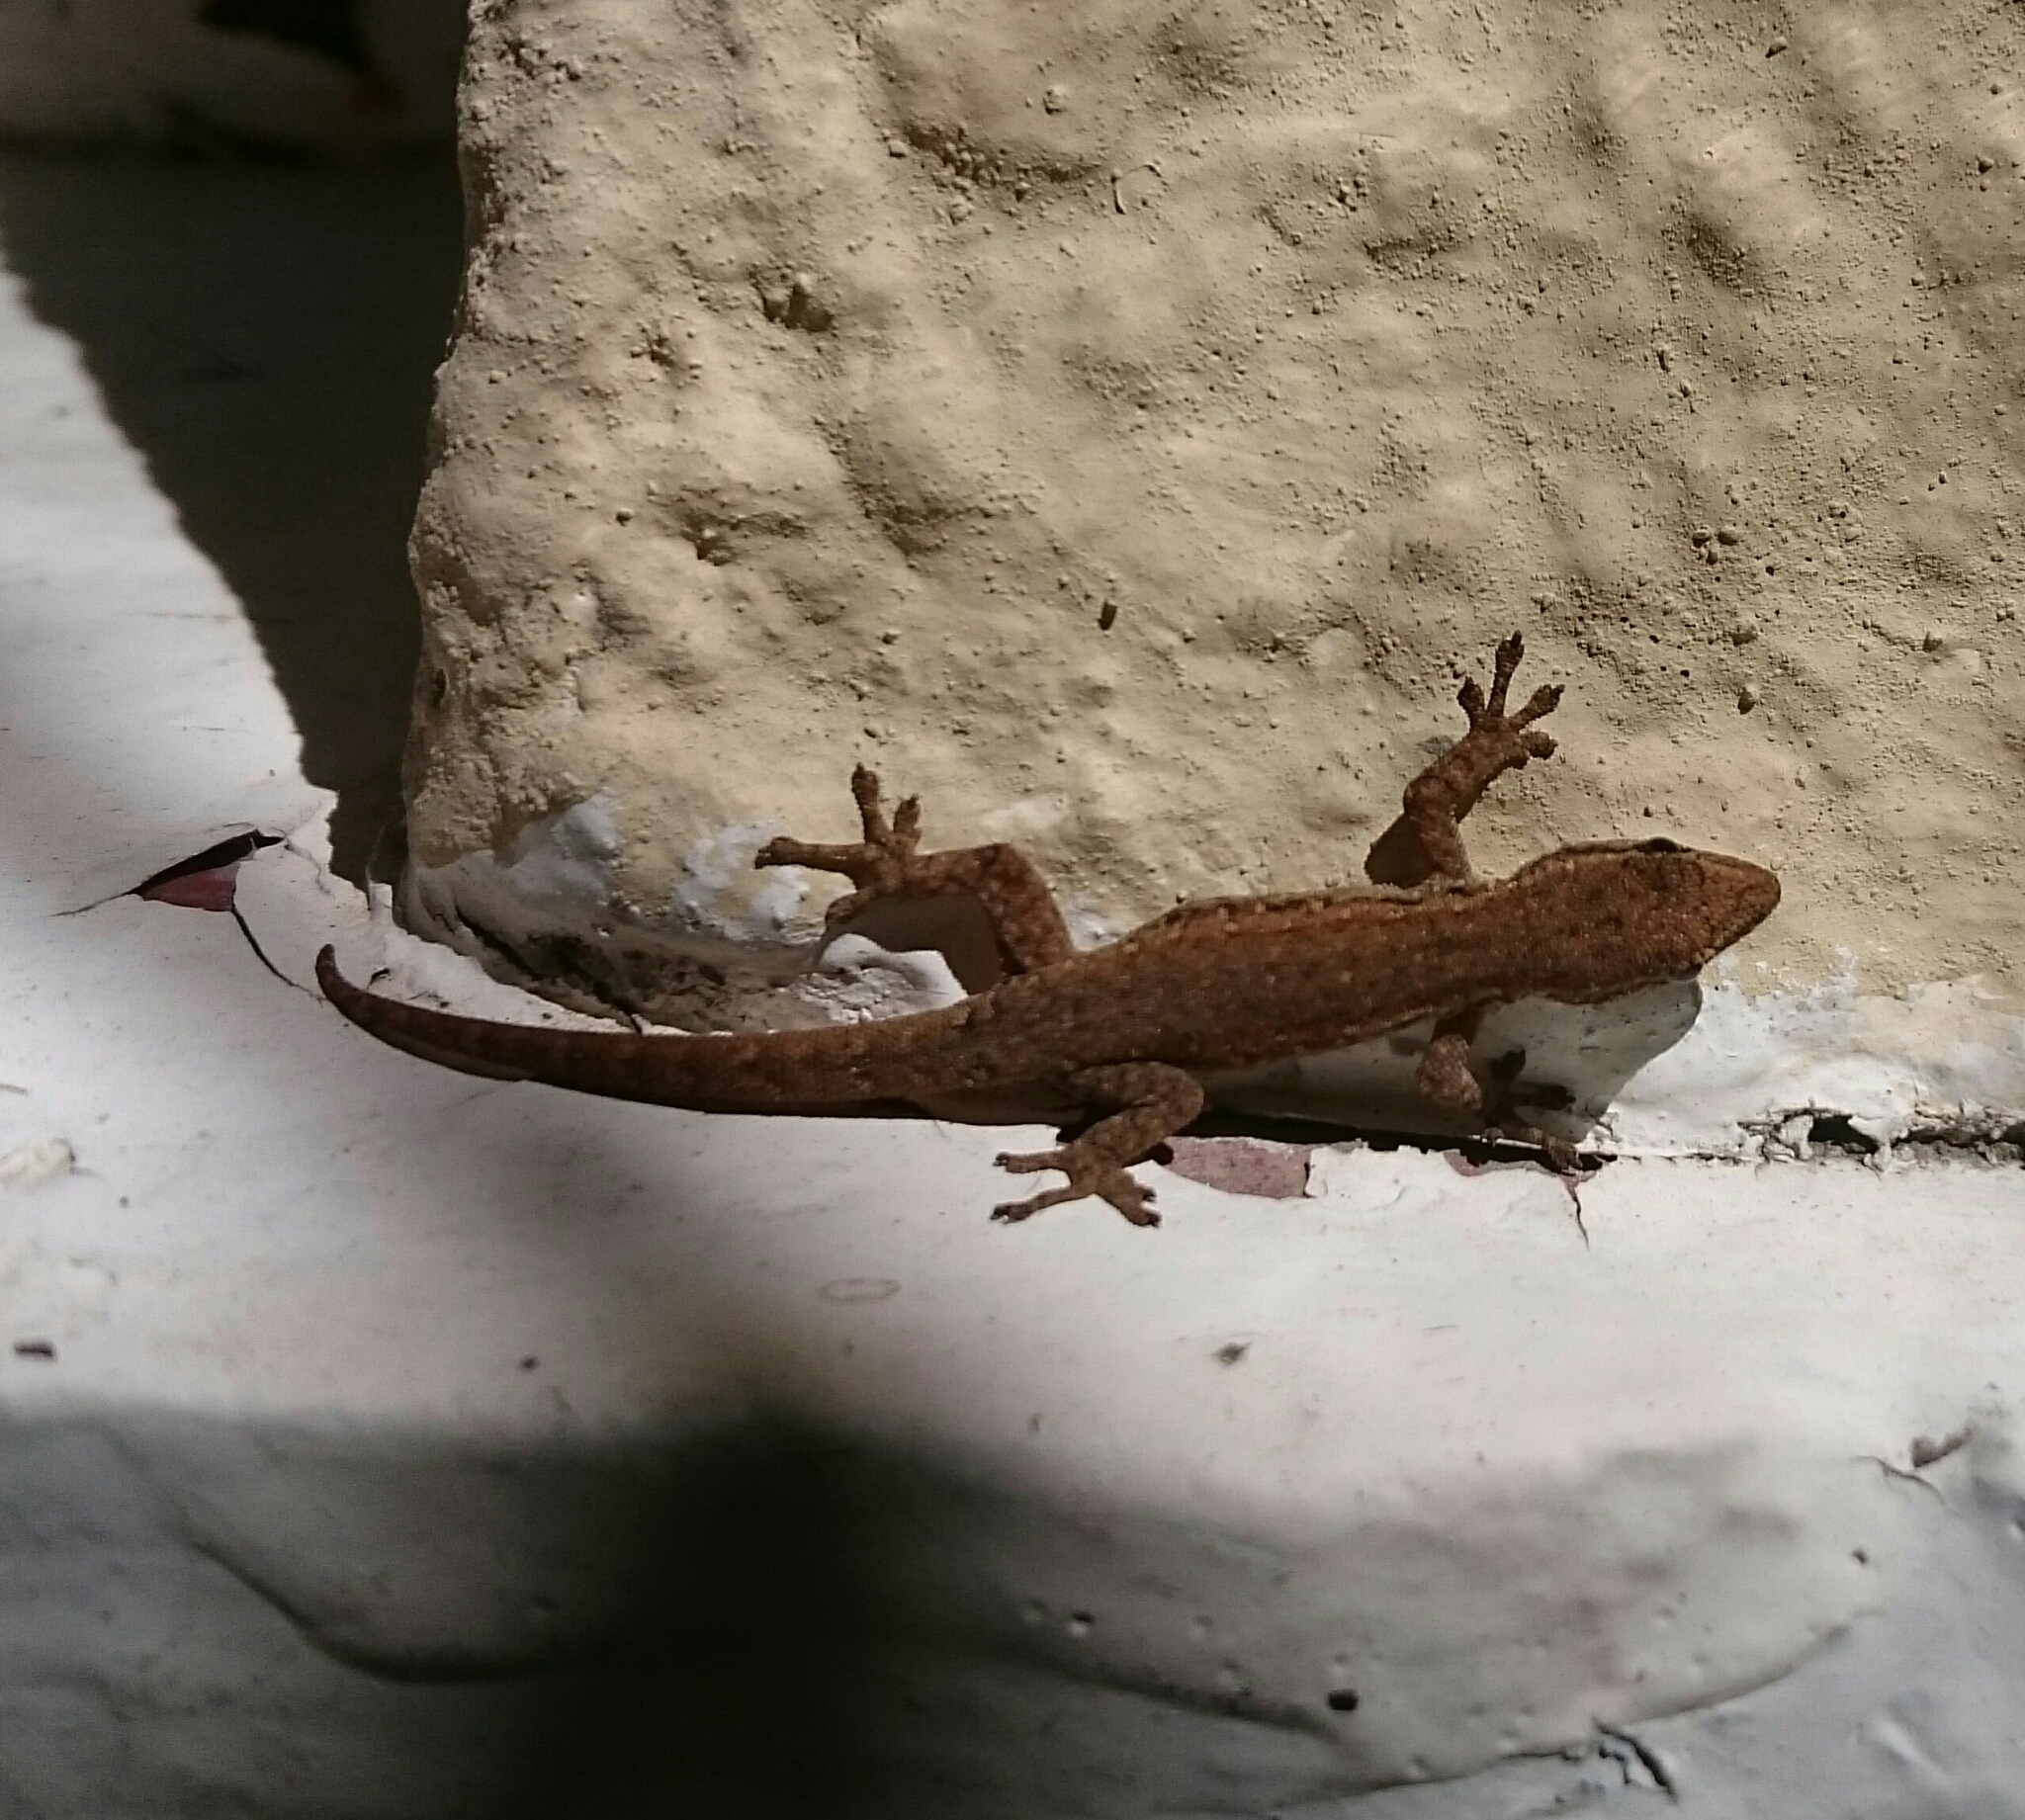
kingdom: Animalia
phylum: Chordata
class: Squamata
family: Gekkonidae
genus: Lygodactylus
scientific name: Lygodactylus capensis
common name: Cape dwarf gecko
